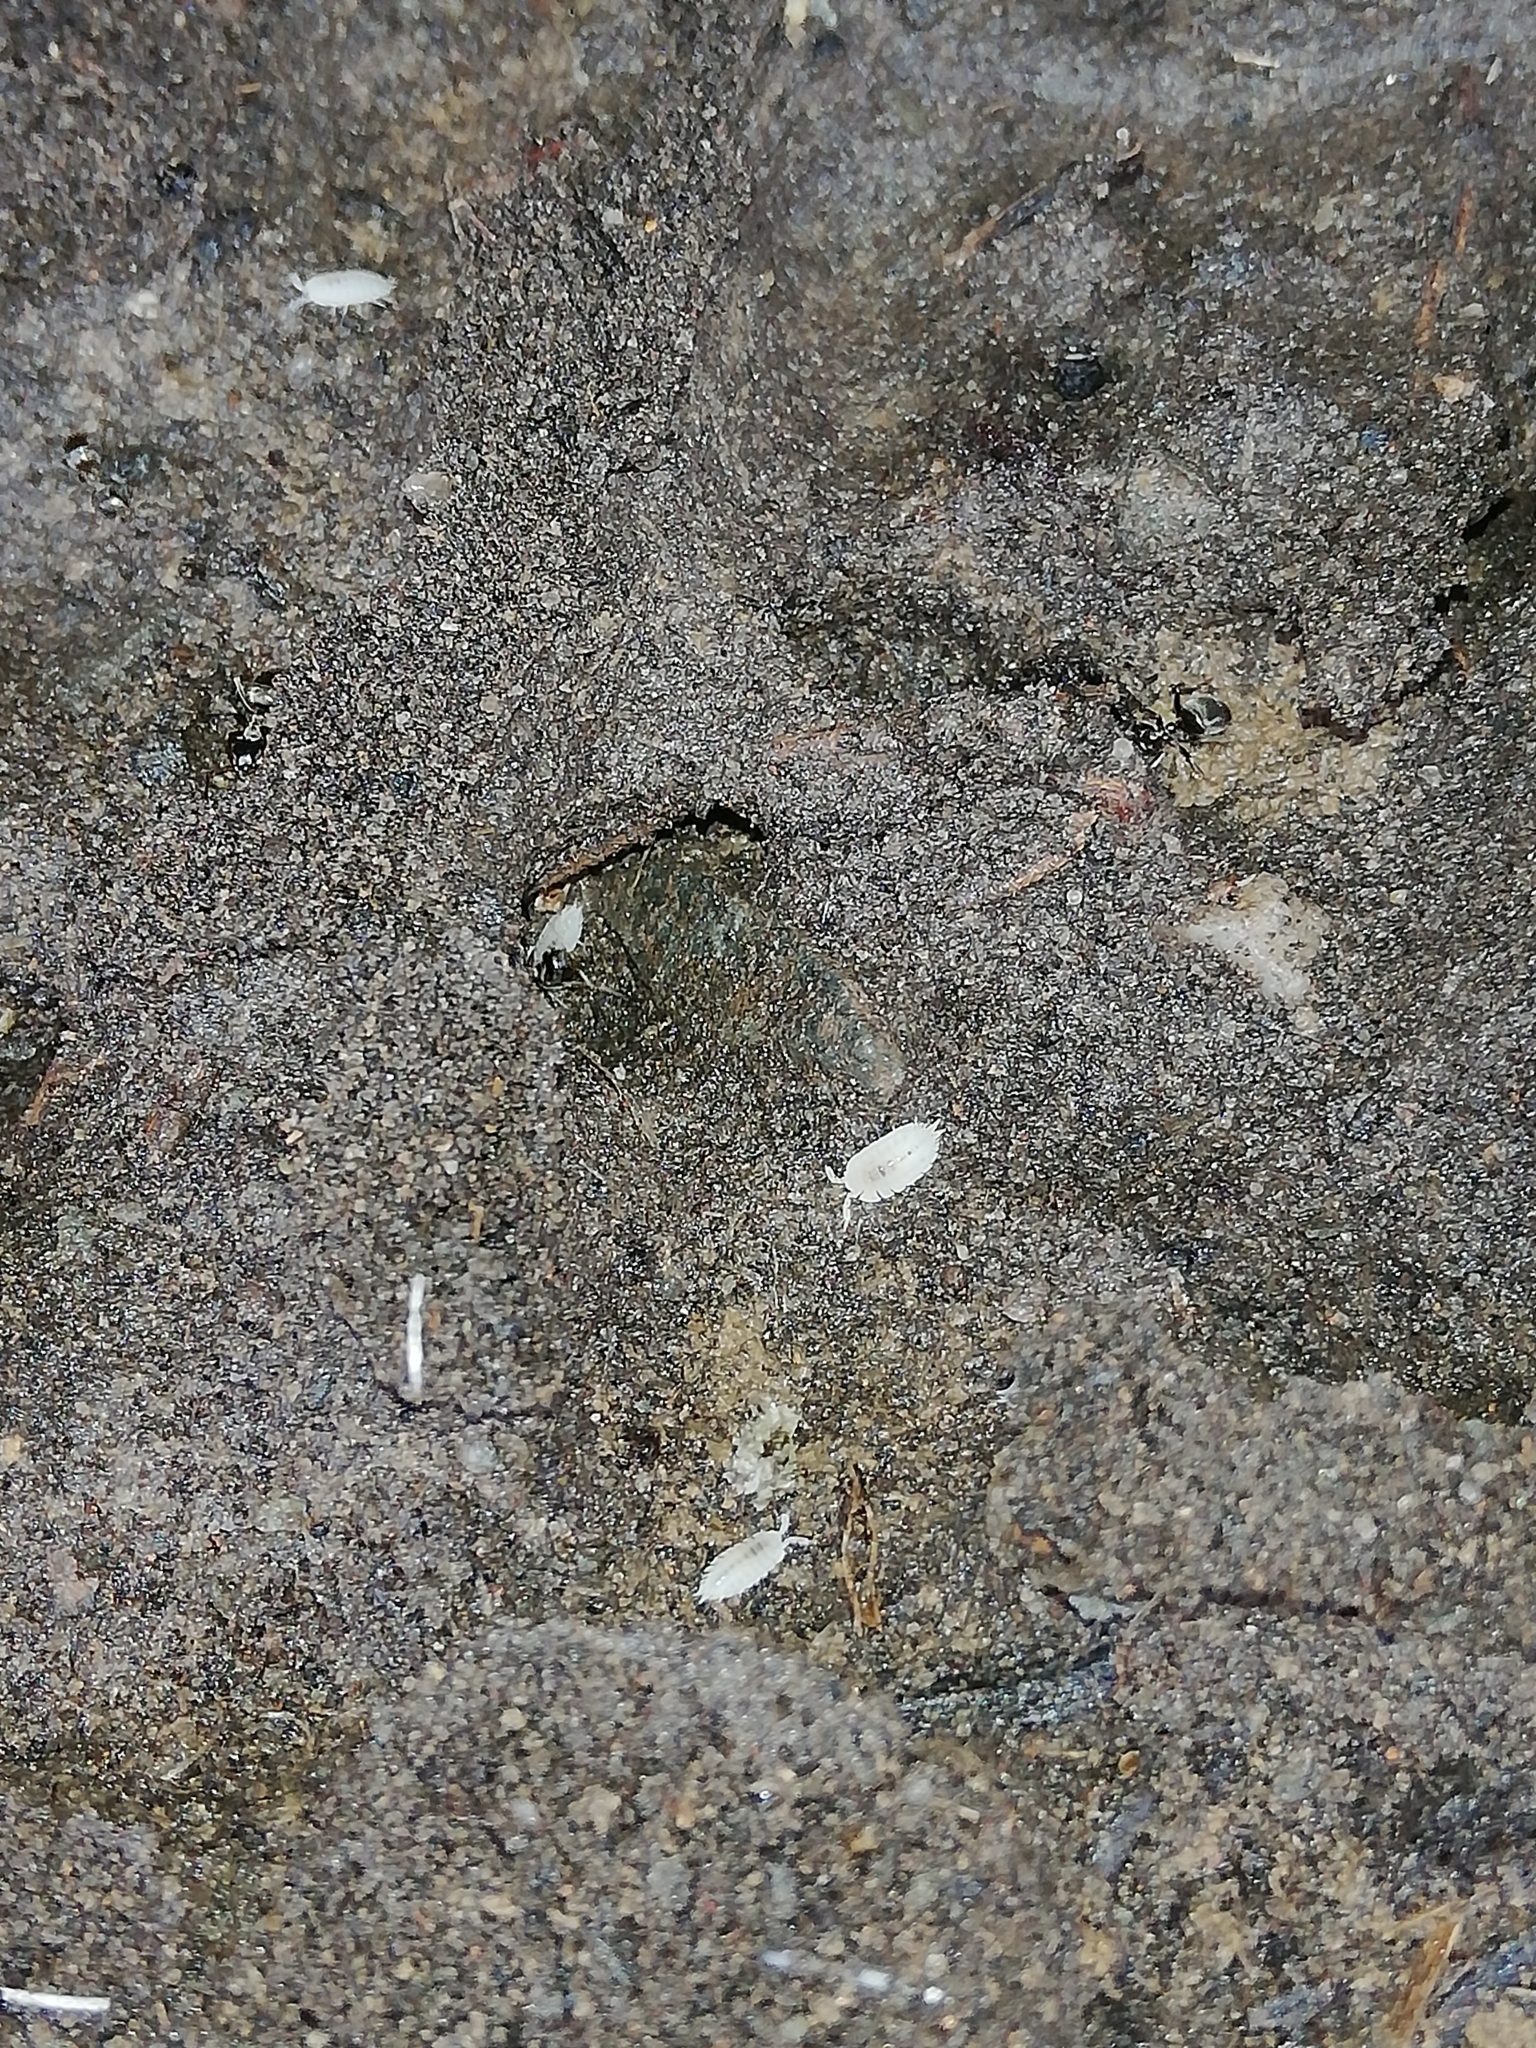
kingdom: Animalia
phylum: Arthropoda
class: Malacostraca
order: Isopoda
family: Platyarthridae
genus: Platyarthrus
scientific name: Platyarthrus hoffmannseggii
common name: Ant woodlouse
